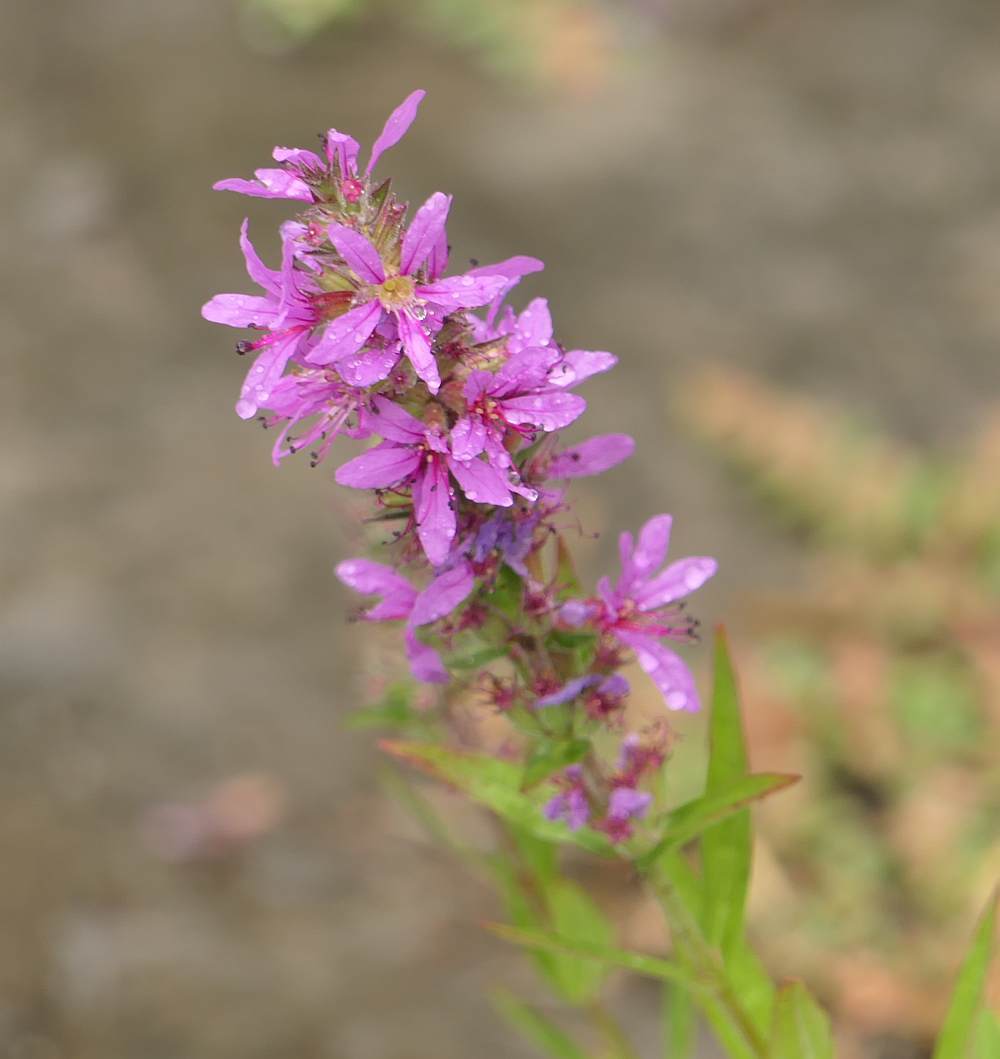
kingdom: Plantae
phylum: Tracheophyta
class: Magnoliopsida
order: Myrtales
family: Lythraceae
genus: Lythrum
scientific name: Lythrum salicaria
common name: Purple loosestrife
